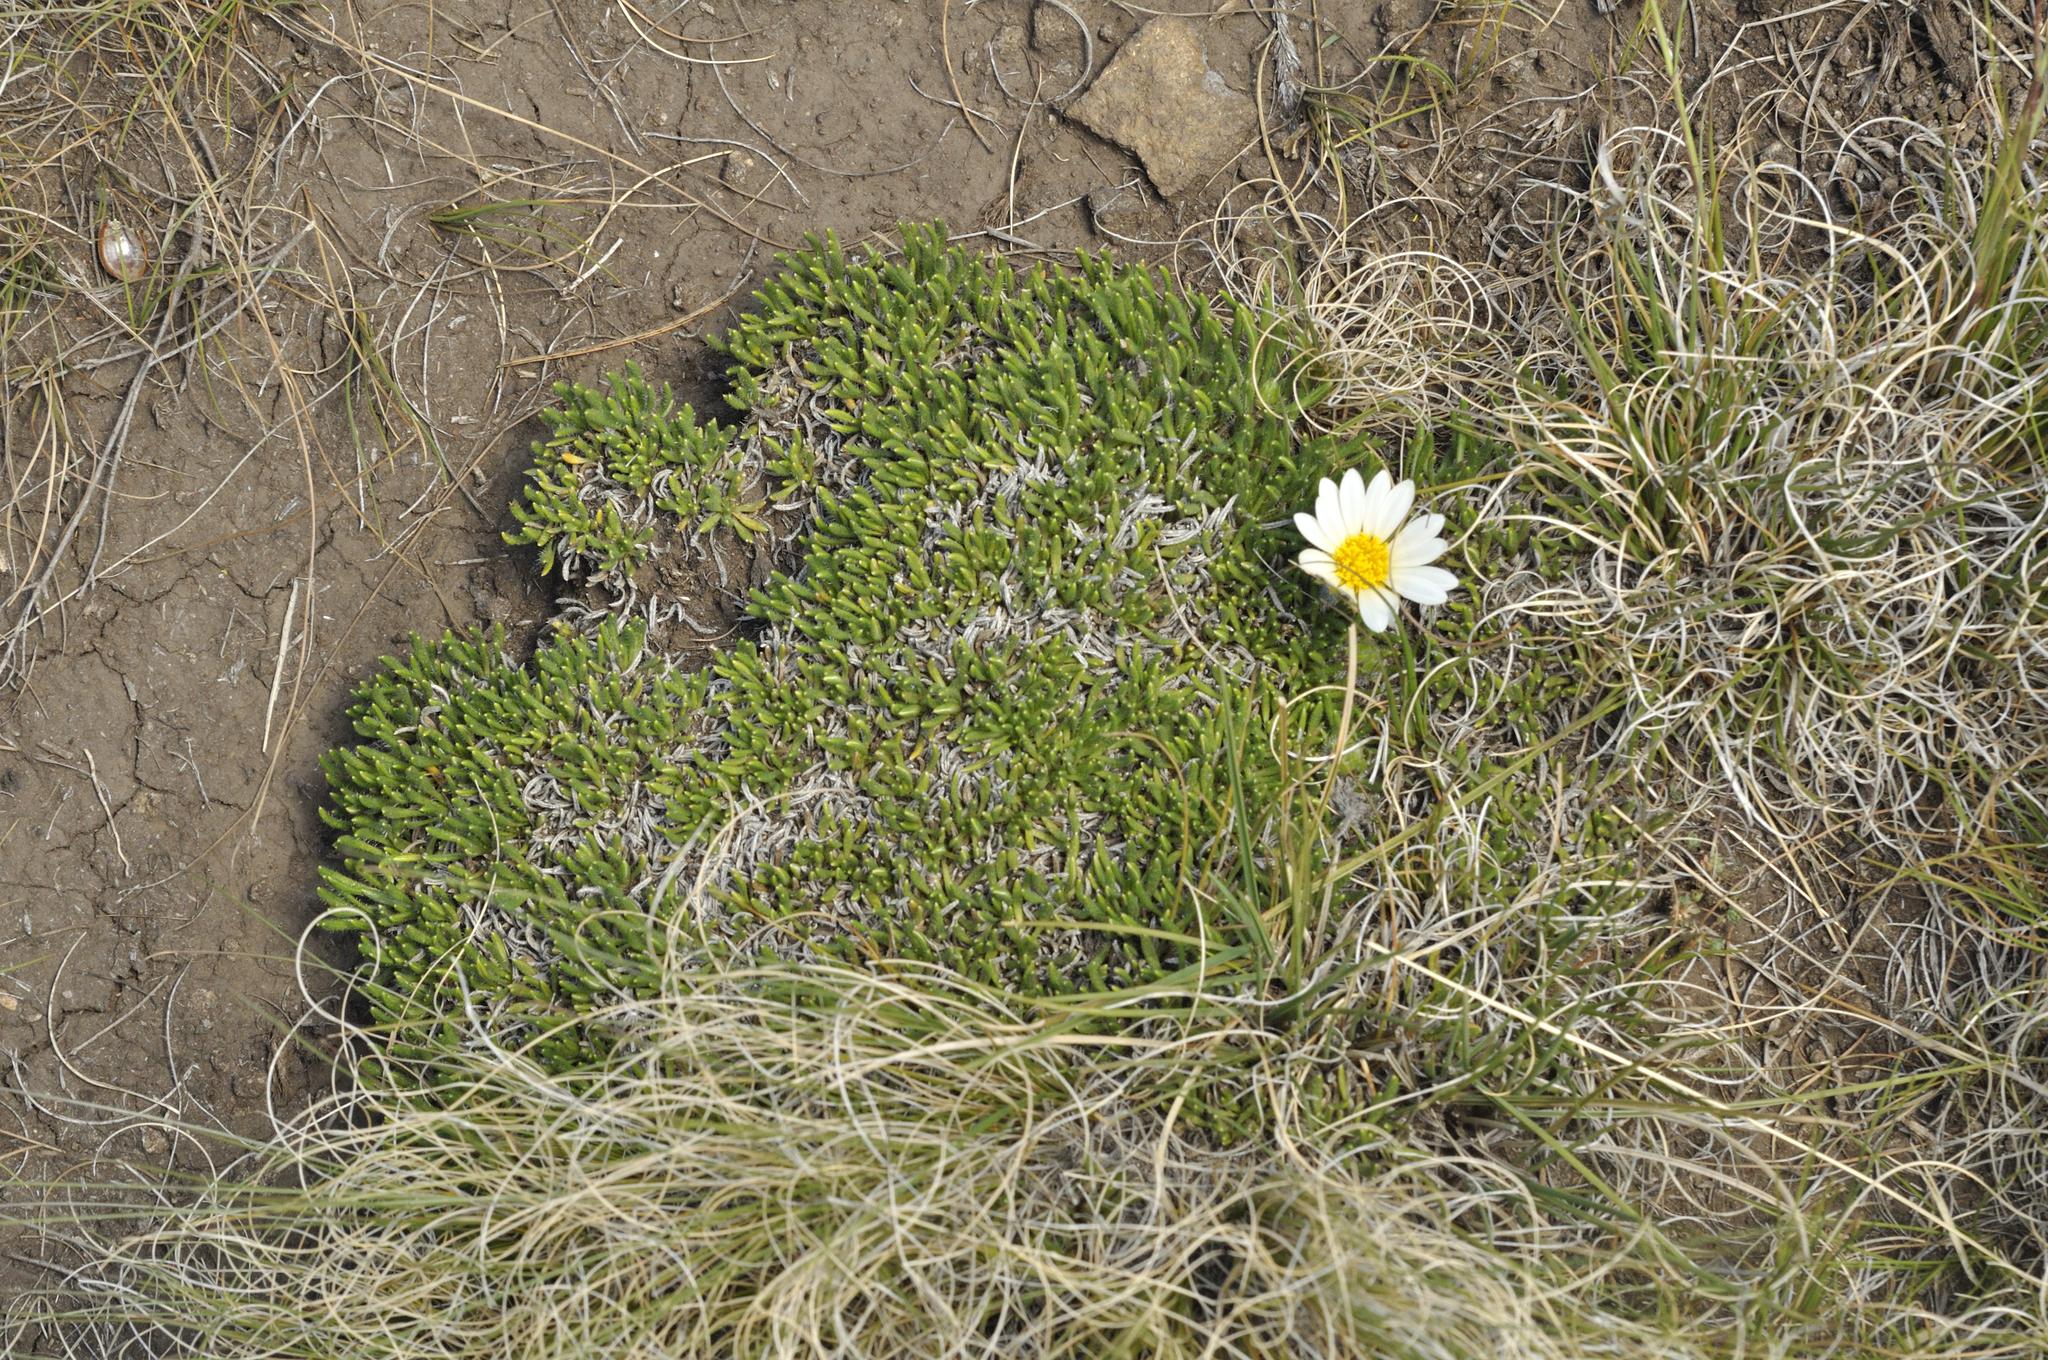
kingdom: Plantae
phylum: Tracheophyta
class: Magnoliopsida
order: Asterales
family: Asteraceae
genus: Roessleria
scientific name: Roessleria armerioides
